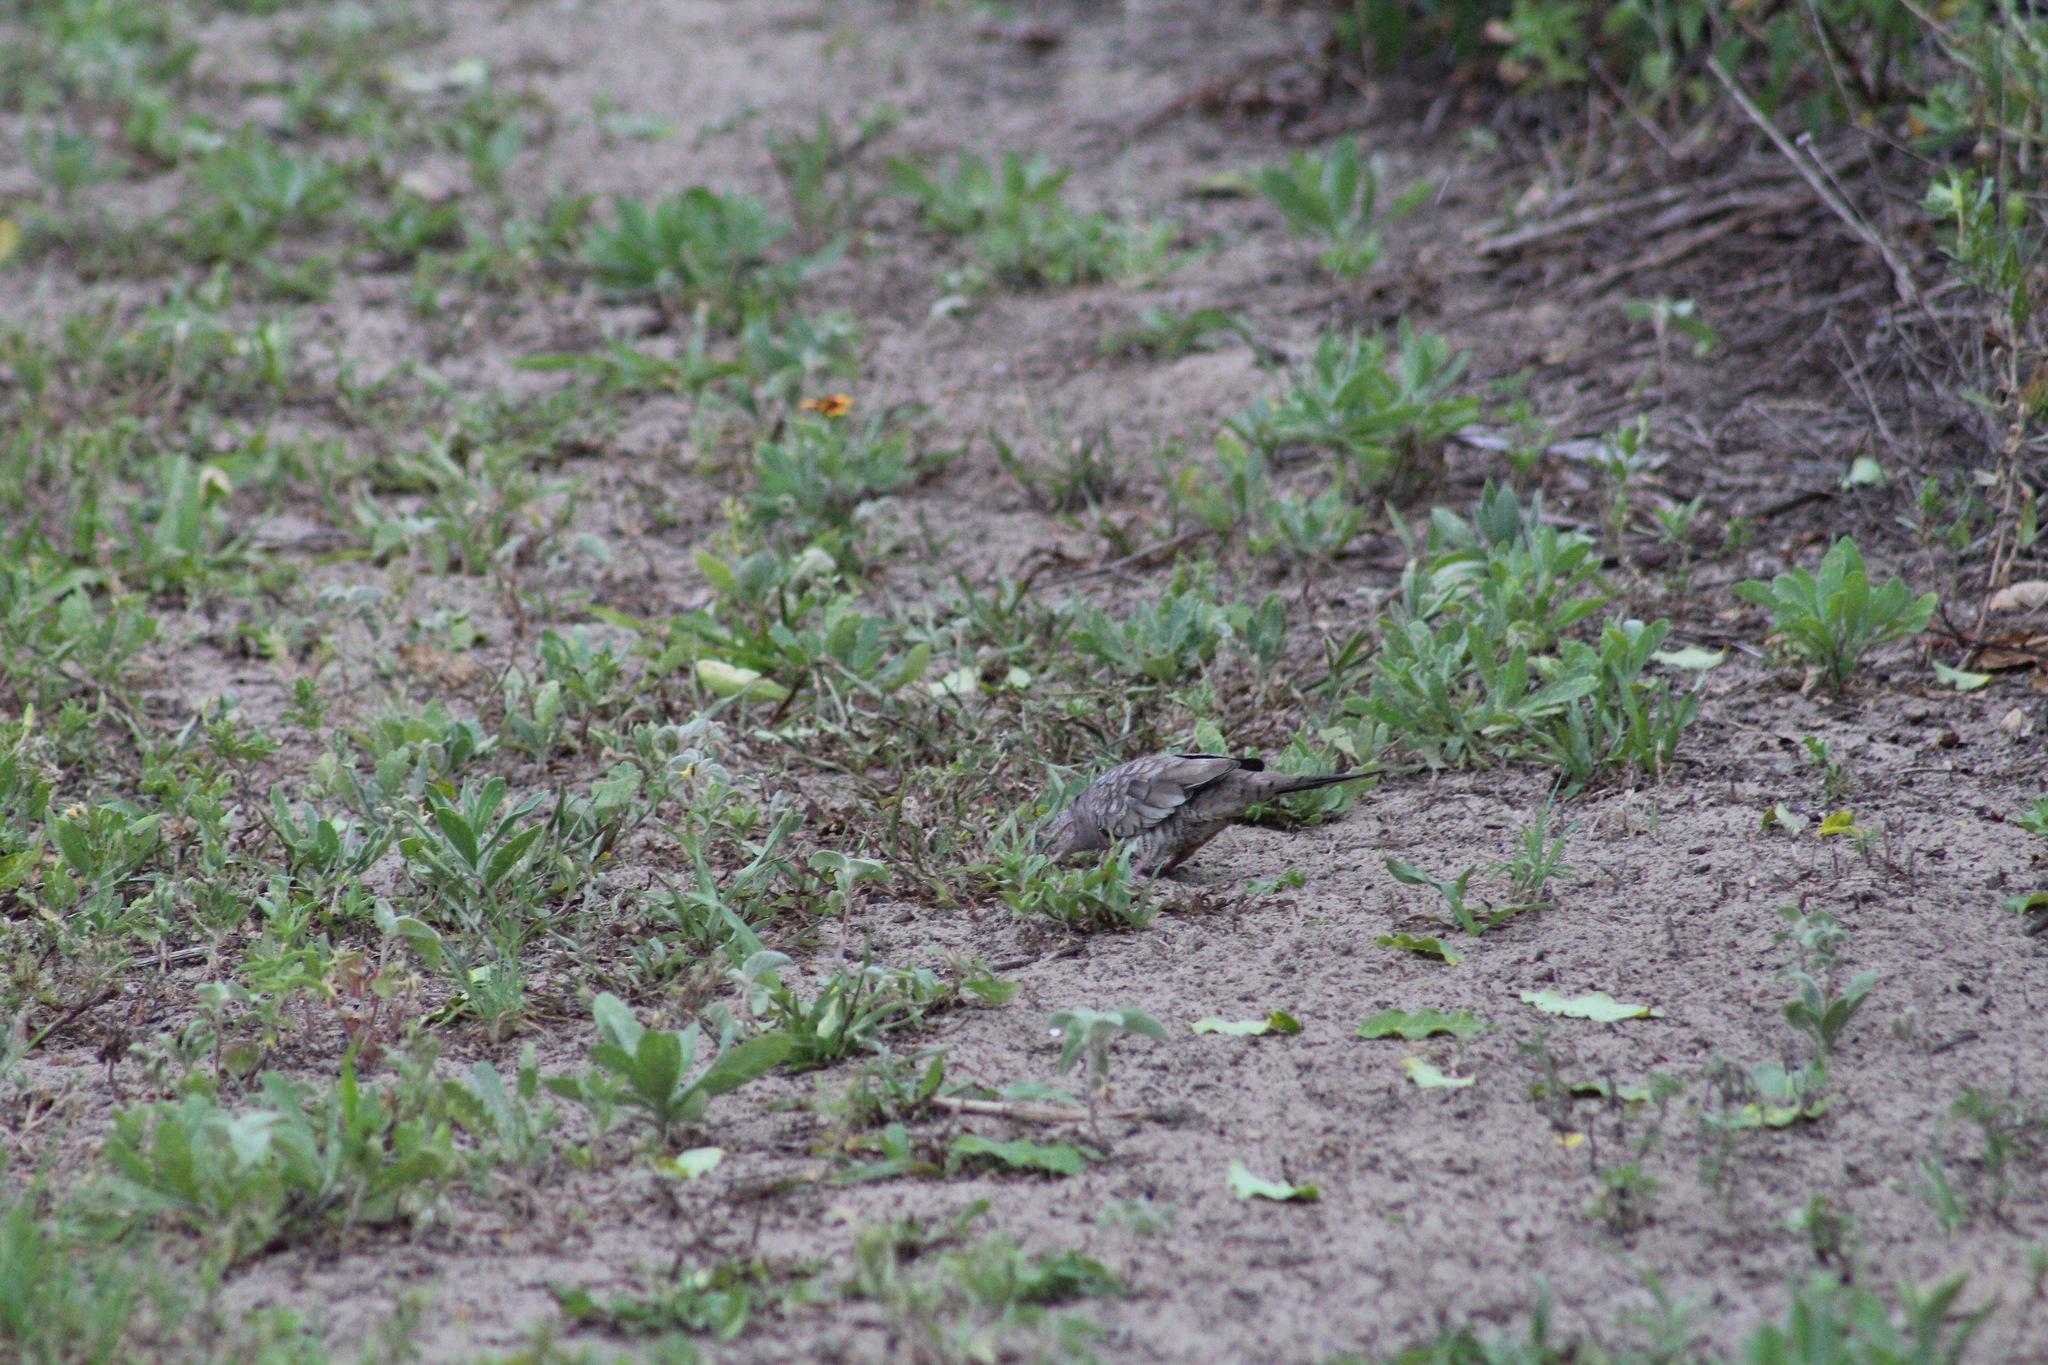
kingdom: Animalia
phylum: Chordata
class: Aves
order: Columbiformes
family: Columbidae
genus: Columbina
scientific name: Columbina inca
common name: Inca dove
